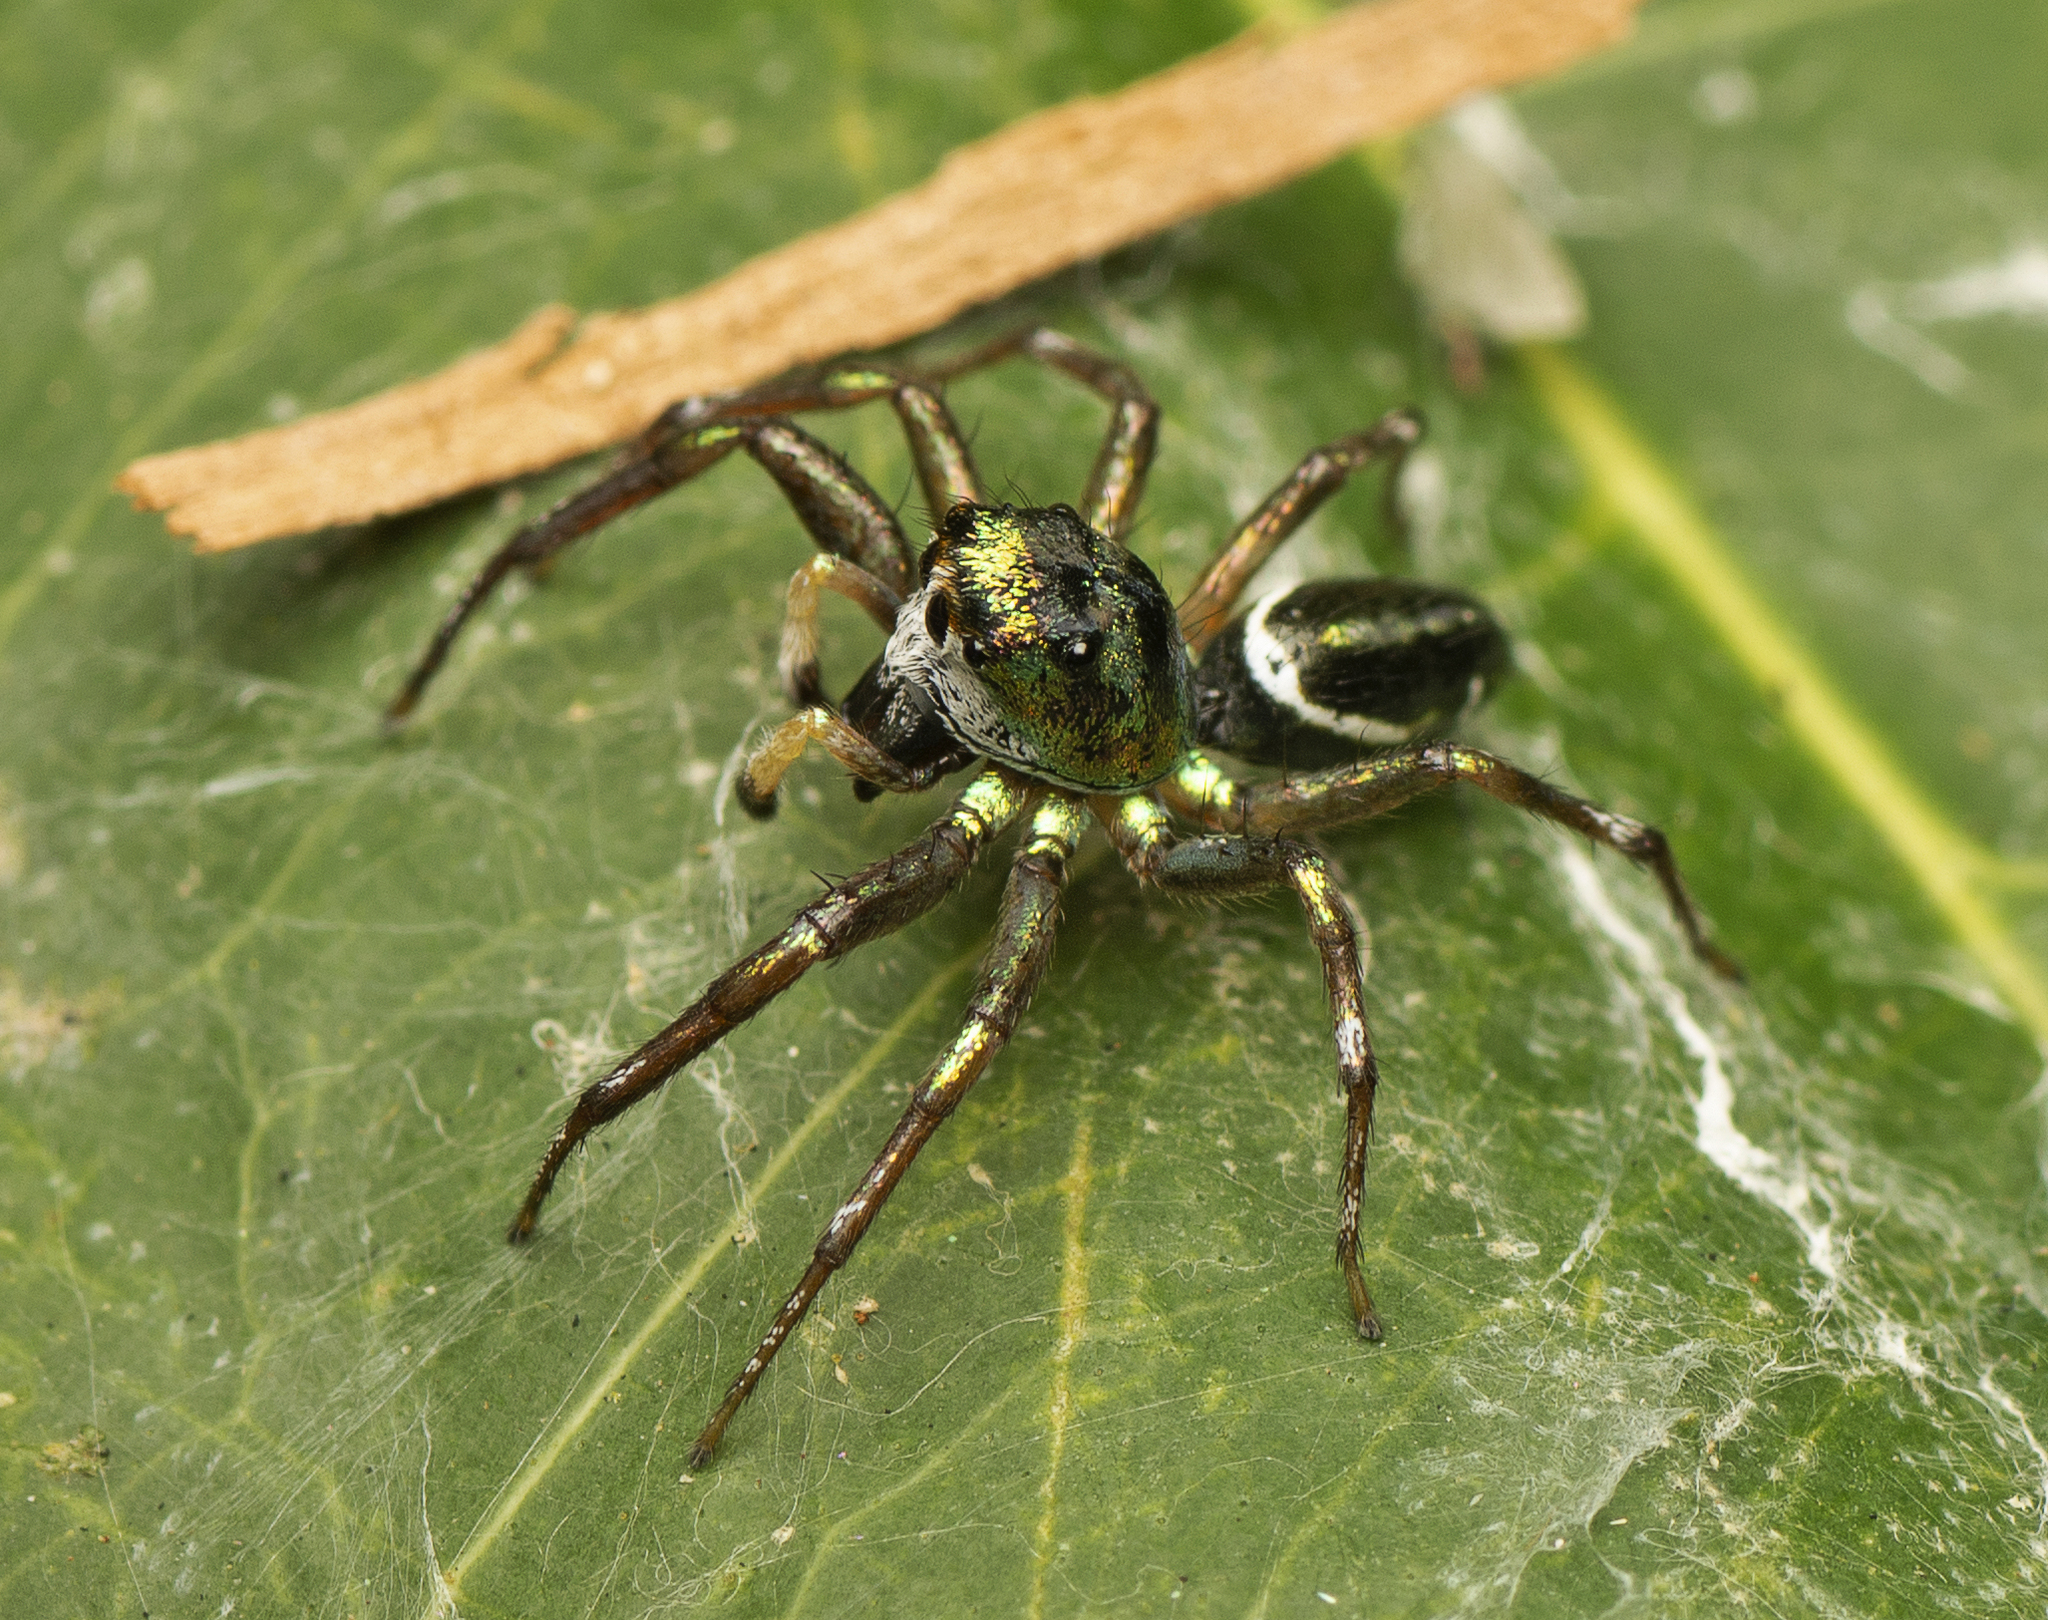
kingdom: Animalia
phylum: Arthropoda
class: Arachnida
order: Araneae
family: Salticidae
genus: Cosmophasis
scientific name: Cosmophasis thalassina
